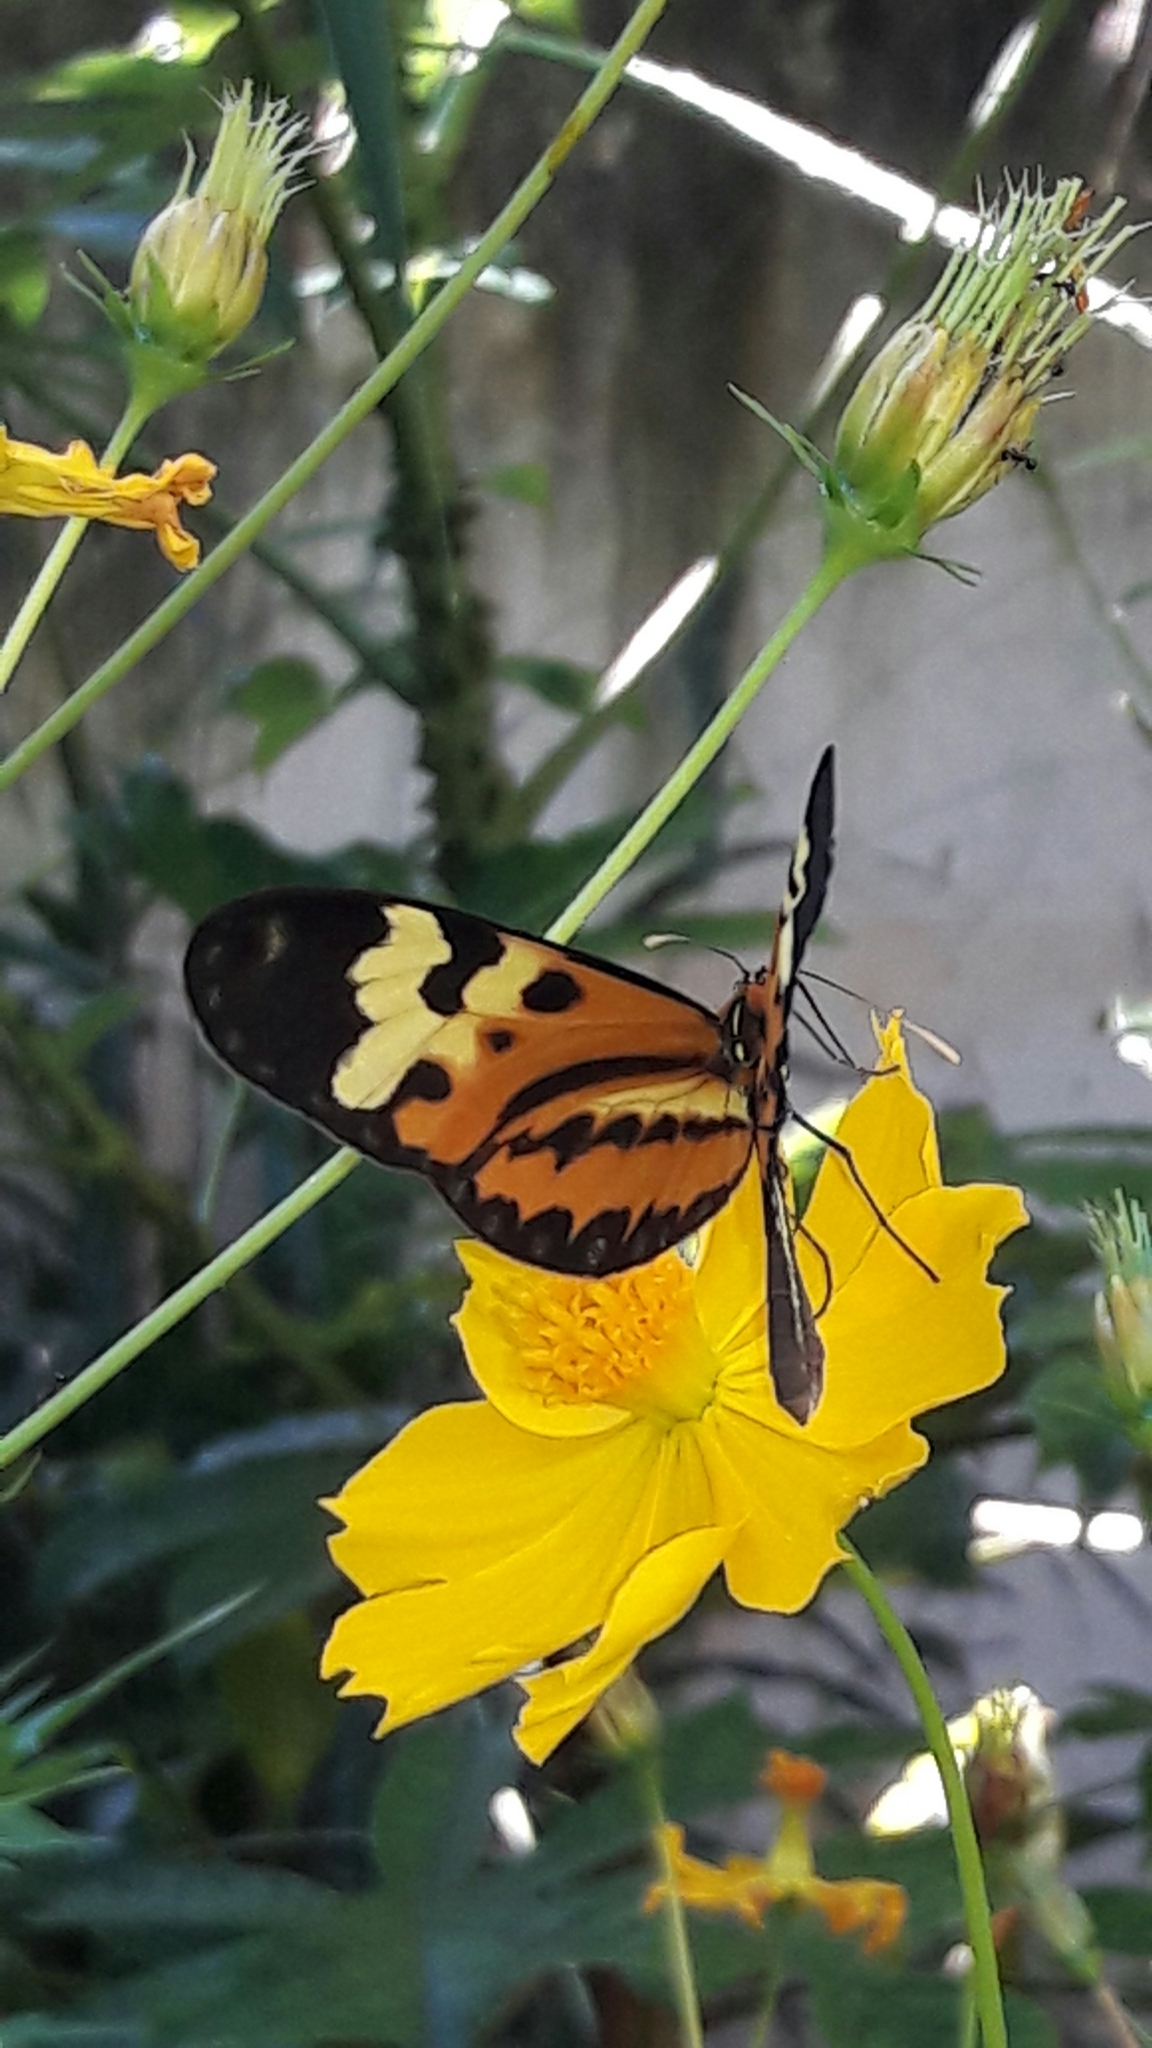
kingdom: Animalia
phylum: Arthropoda
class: Insecta
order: Lepidoptera
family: Nymphalidae
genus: Mechanitis
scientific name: Mechanitis polymnia
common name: Disturbed tigerwing
